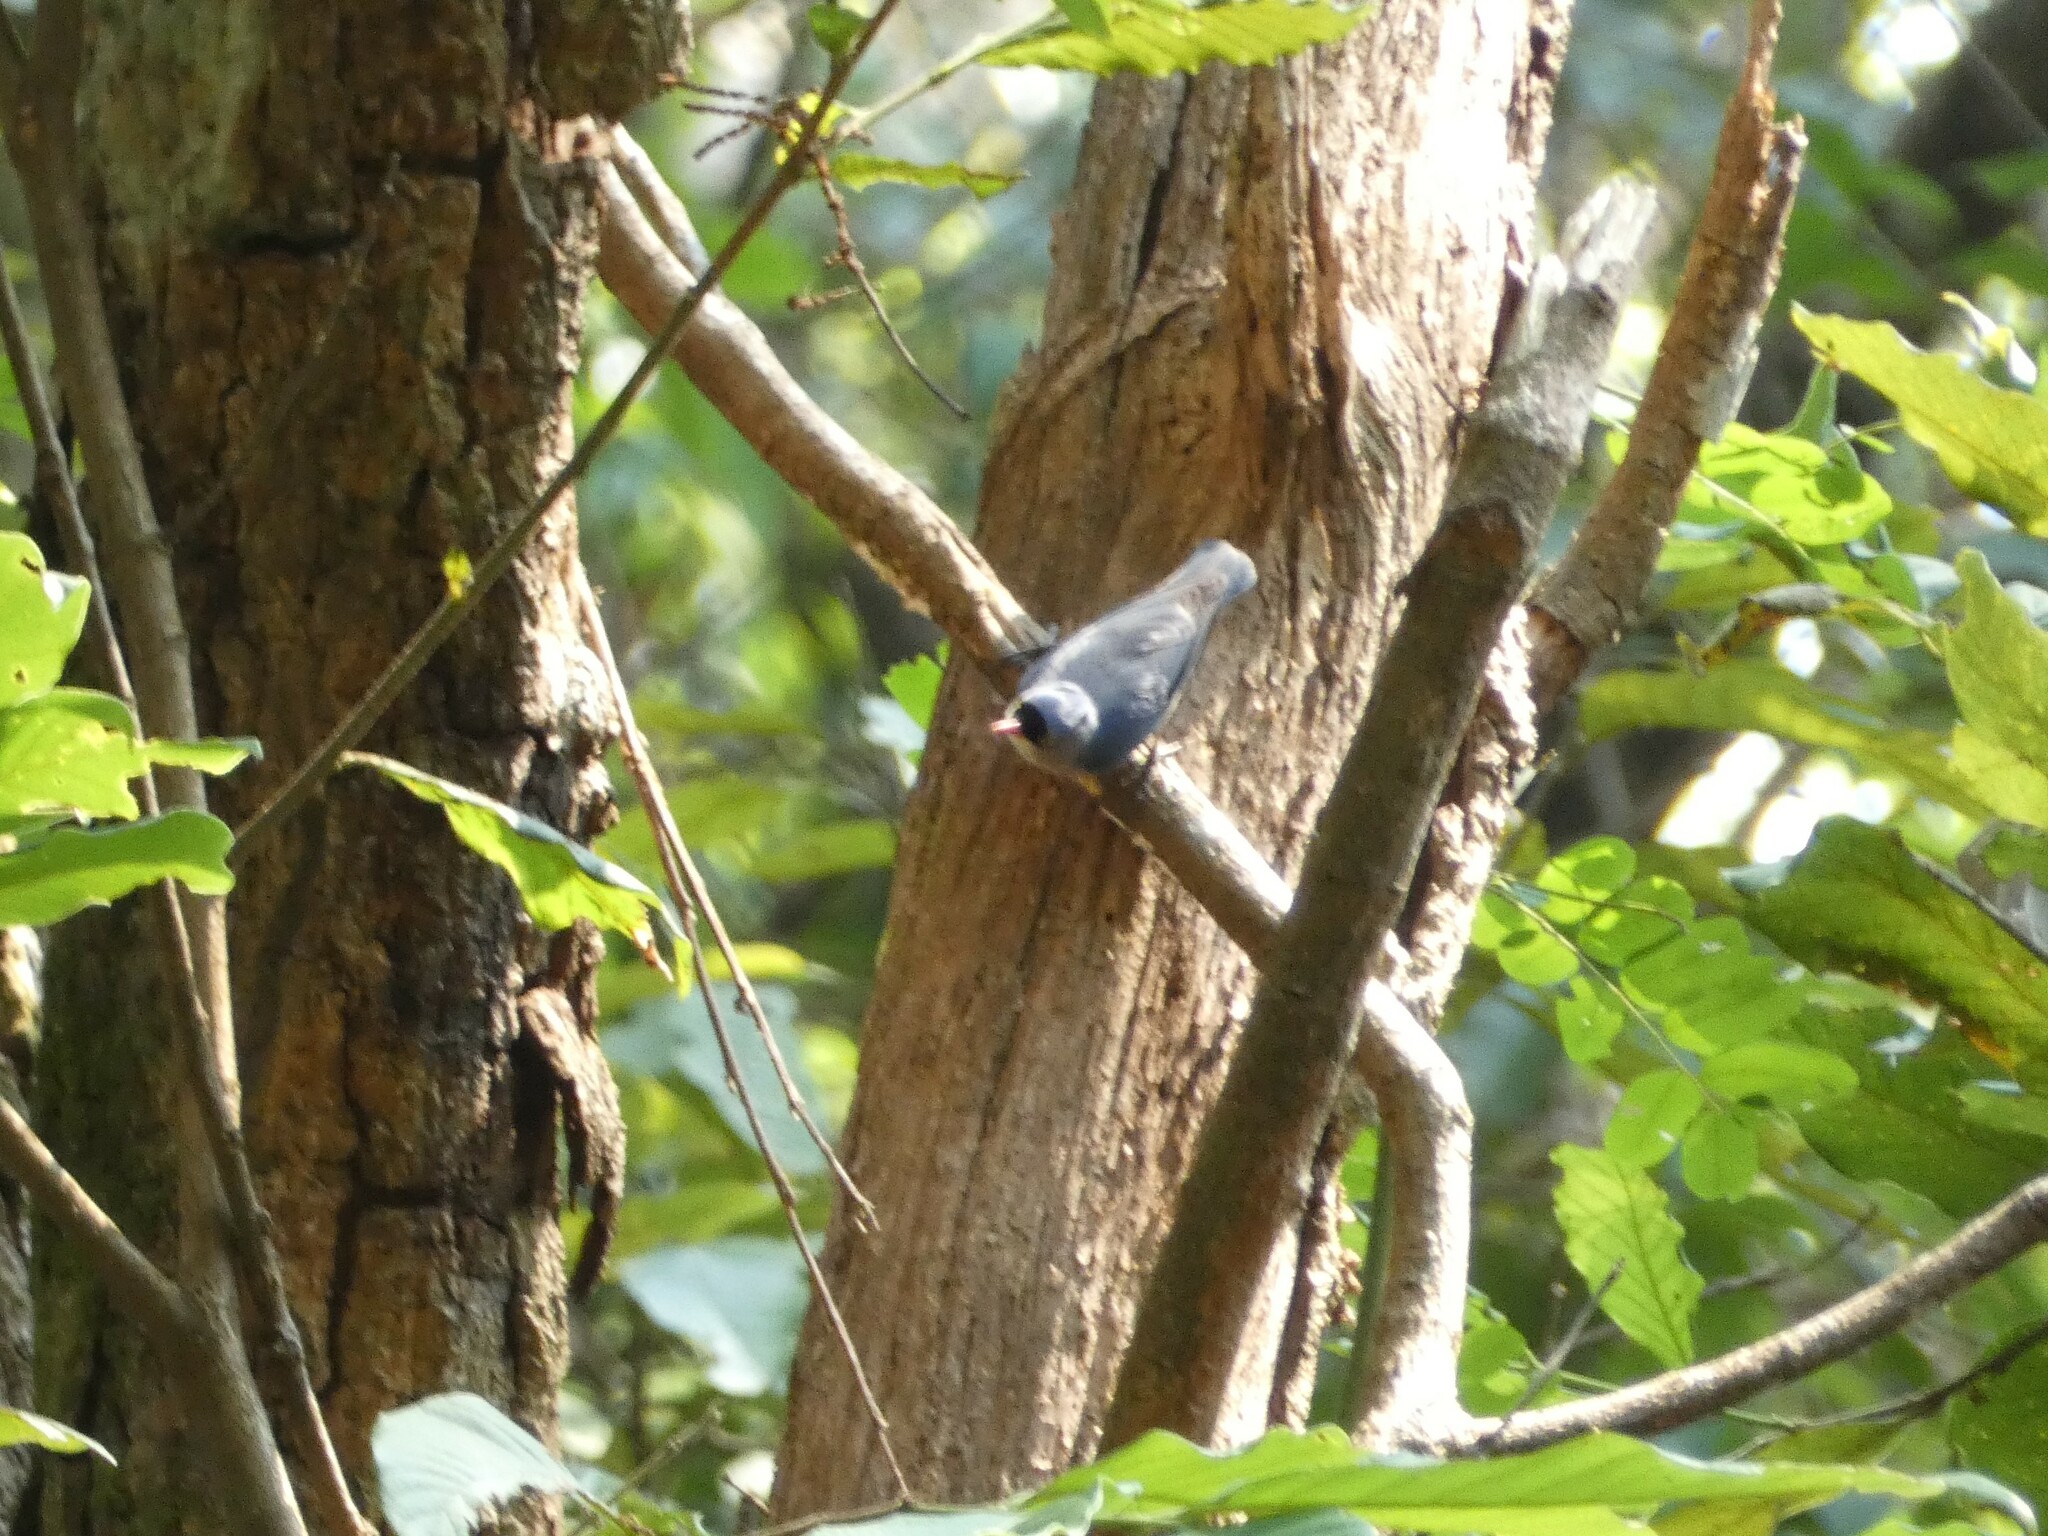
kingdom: Animalia
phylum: Chordata
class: Aves
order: Passeriformes
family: Sittidae
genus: Sitta
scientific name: Sitta frontalis
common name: Velvet-fronted nuthatch
